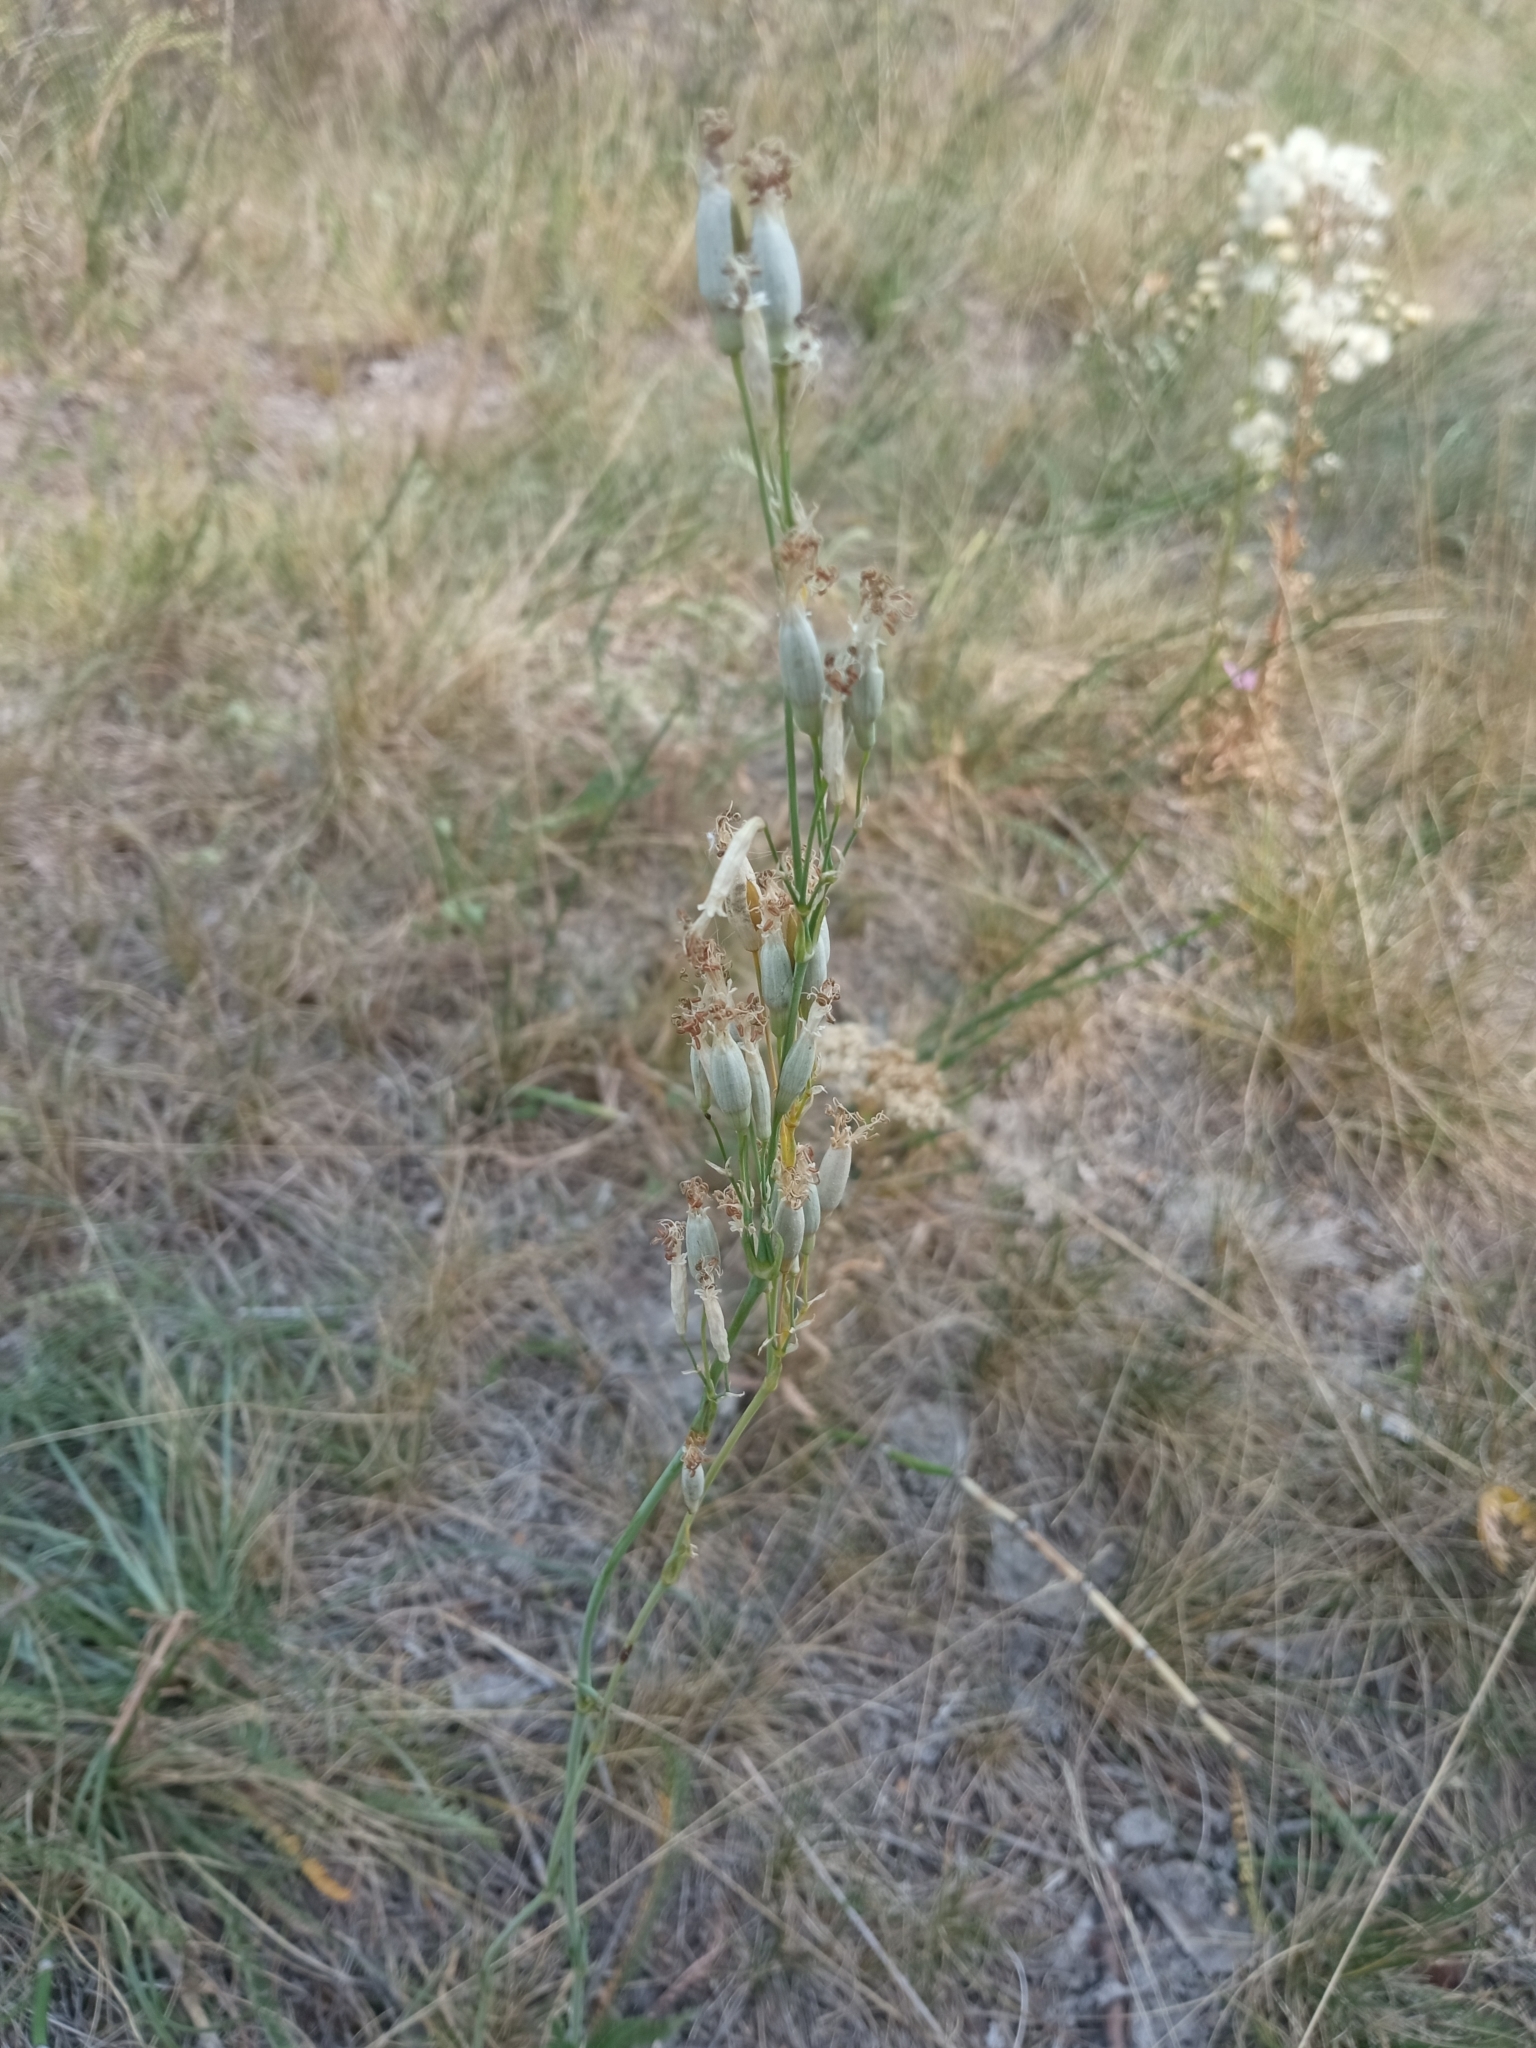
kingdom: Plantae
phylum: Tracheophyta
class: Magnoliopsida
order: Caryophyllales
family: Caryophyllaceae
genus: Silene
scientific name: Silene chlorantha
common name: Yellowgreen catchfly
